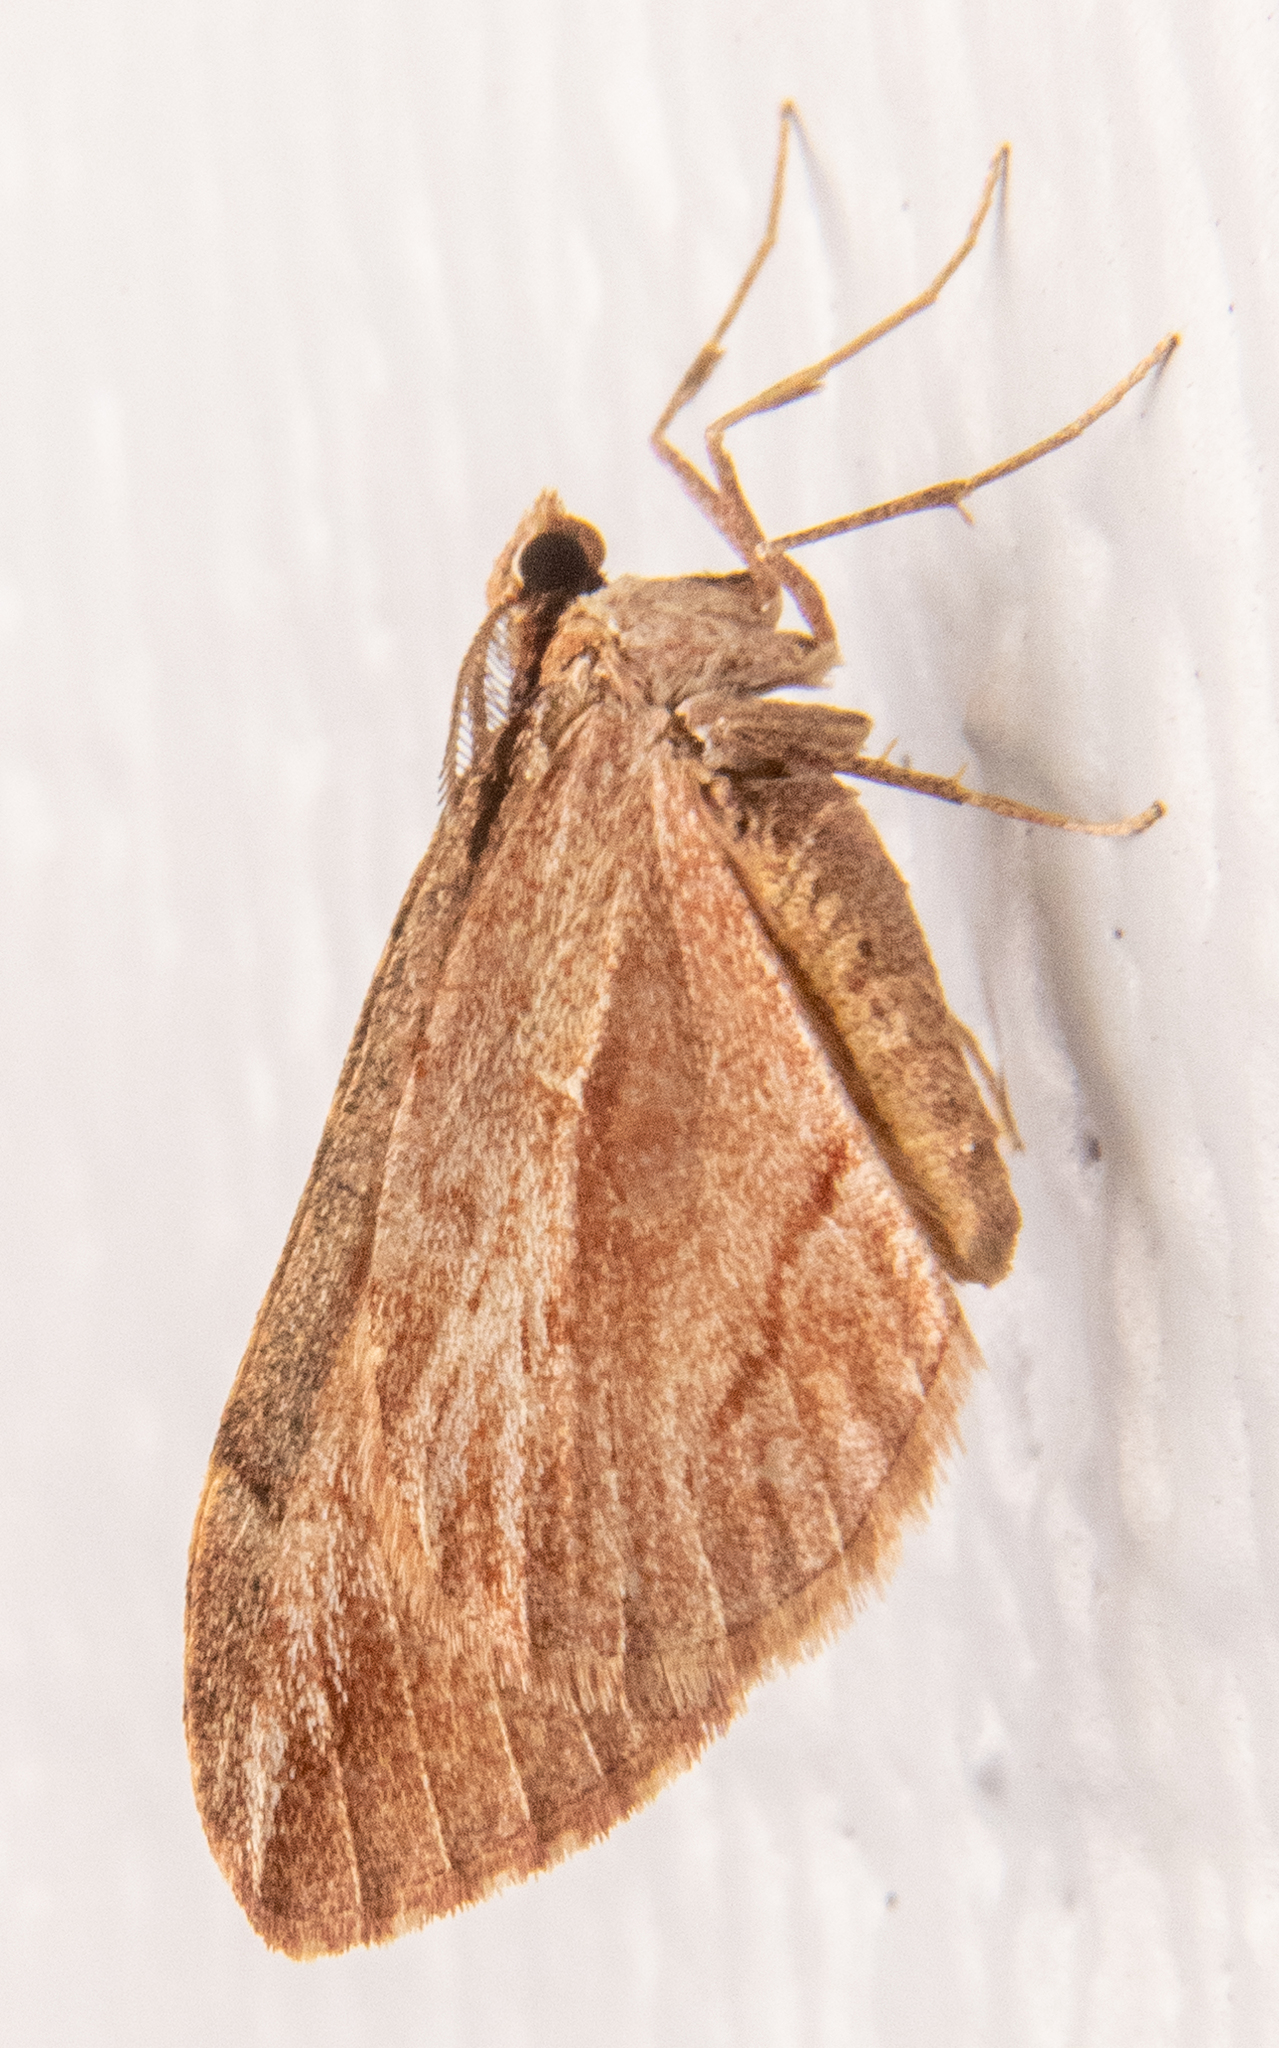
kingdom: Animalia
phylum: Arthropoda
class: Insecta
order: Lepidoptera
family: Geometridae
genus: Stamnoctenis
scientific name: Stamnoctenis pearsalli
